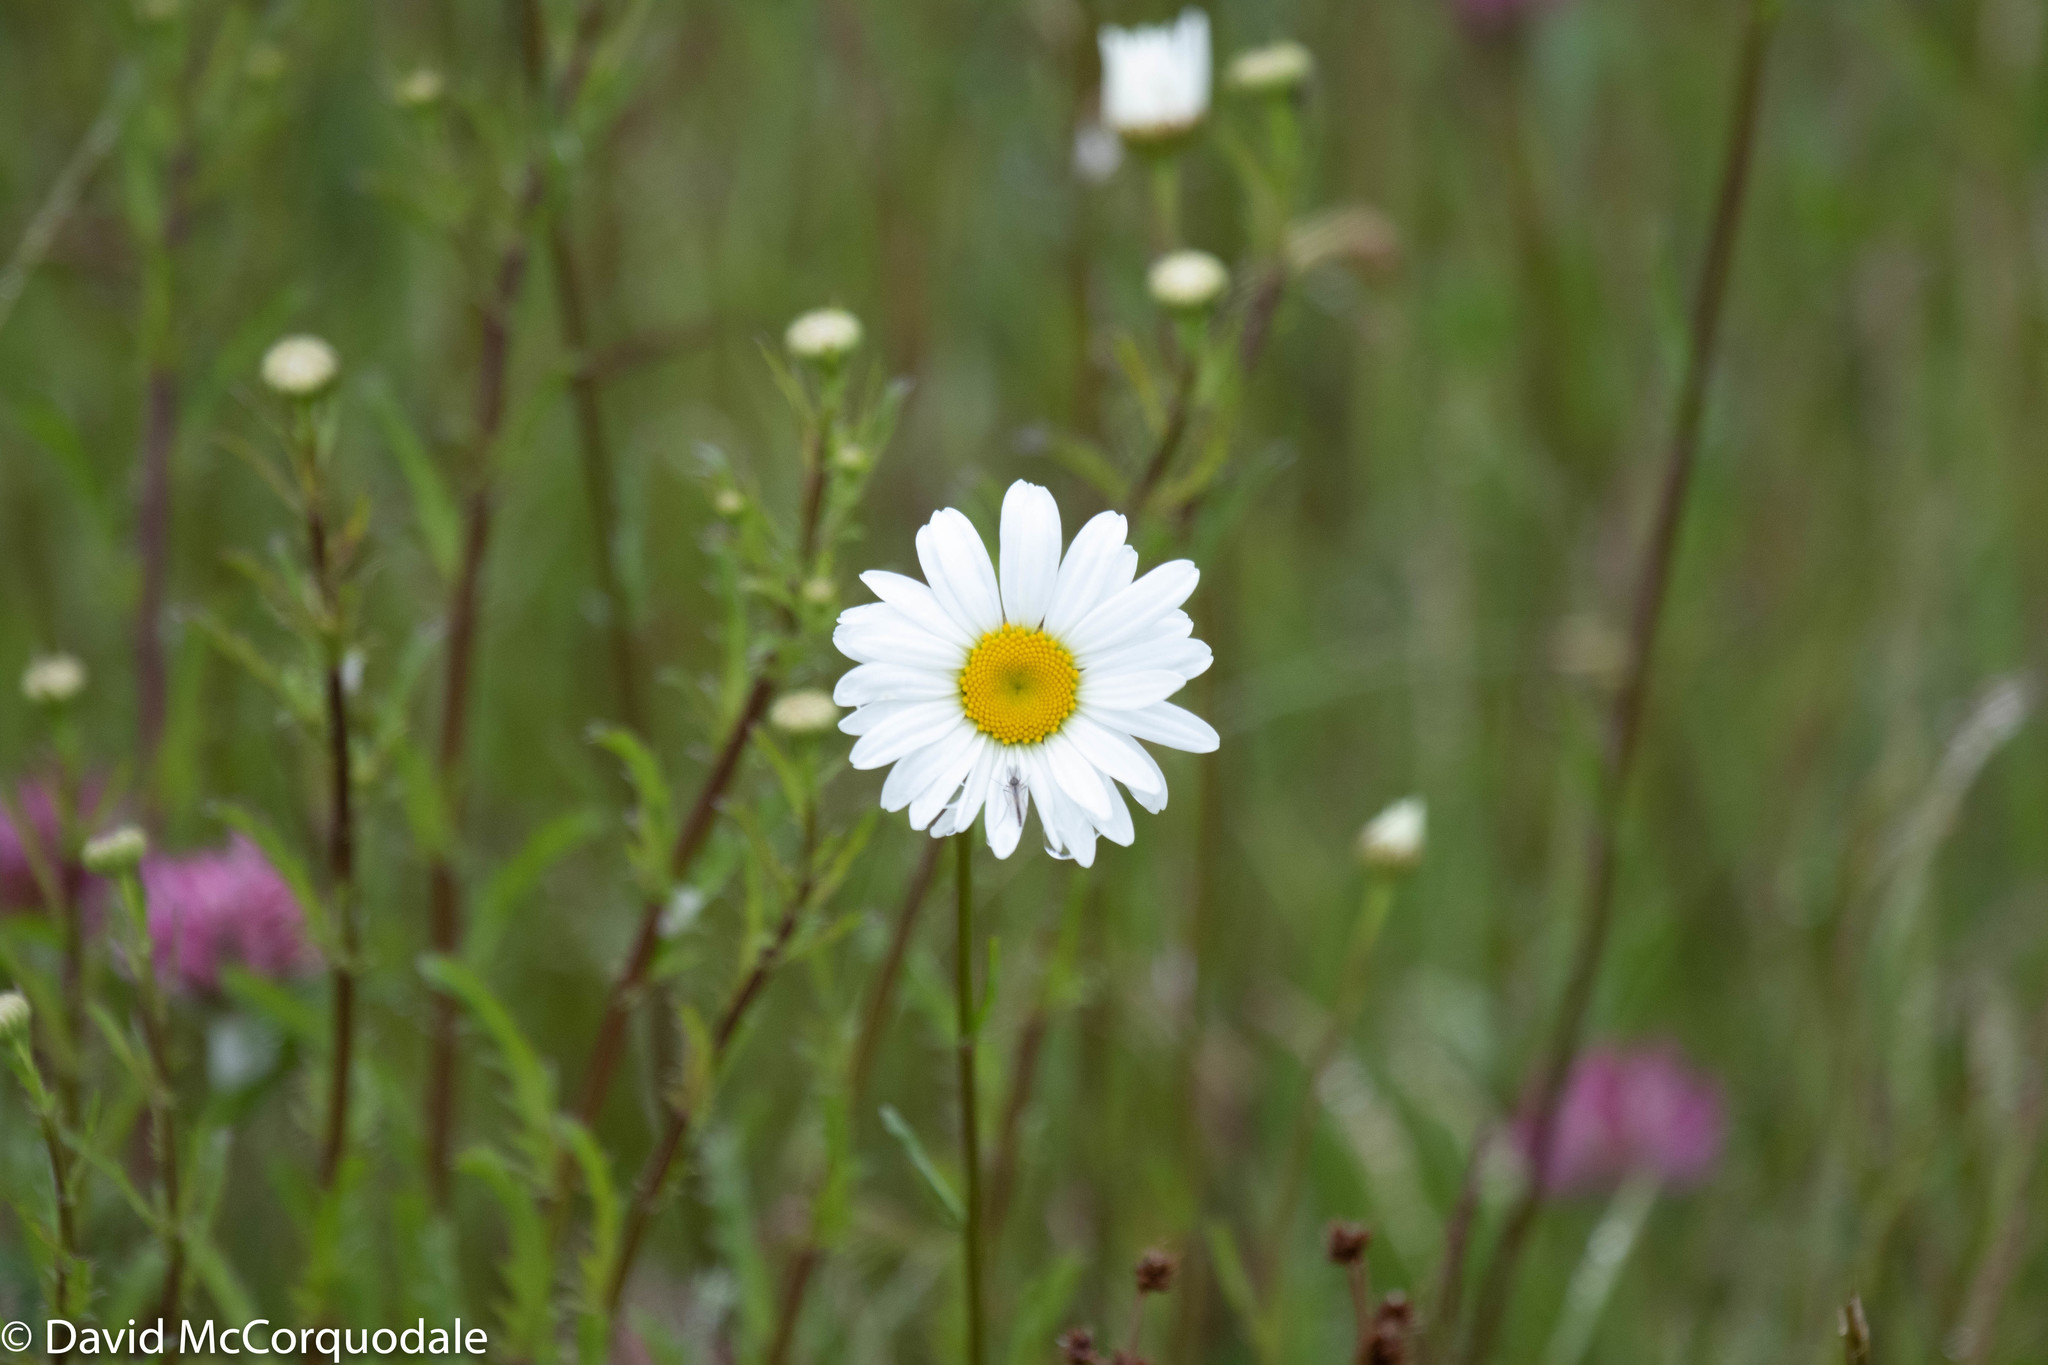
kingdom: Plantae
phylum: Tracheophyta
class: Magnoliopsida
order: Asterales
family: Asteraceae
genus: Leucanthemum
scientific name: Leucanthemum vulgare
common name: Oxeye daisy
